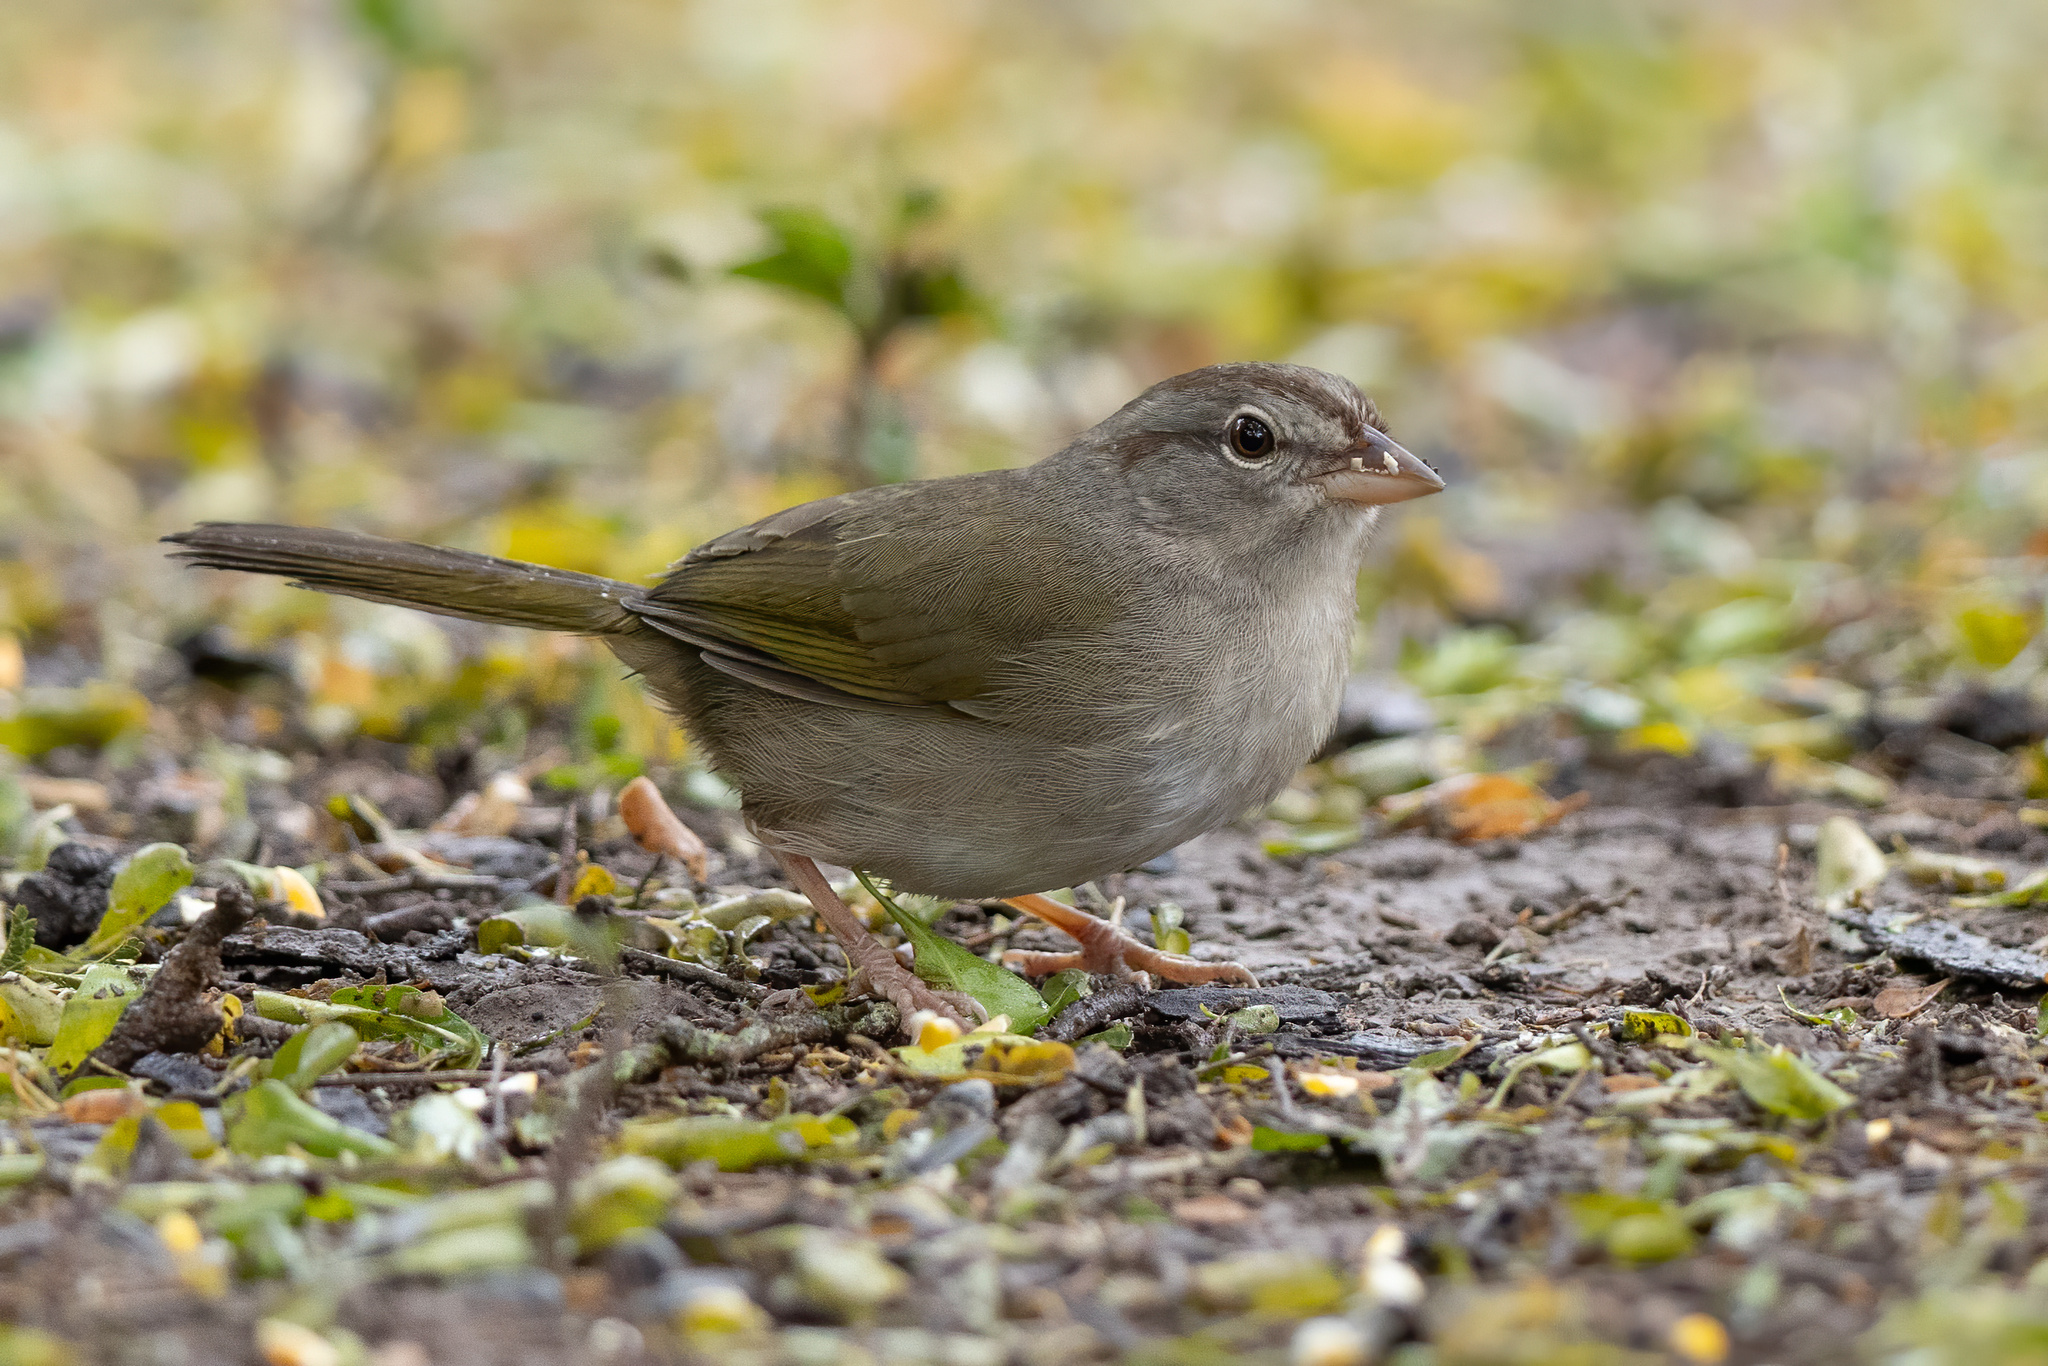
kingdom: Animalia
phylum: Chordata
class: Aves
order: Passeriformes
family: Passerellidae
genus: Arremonops
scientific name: Arremonops rufivirgatus
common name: Olive sparrow
